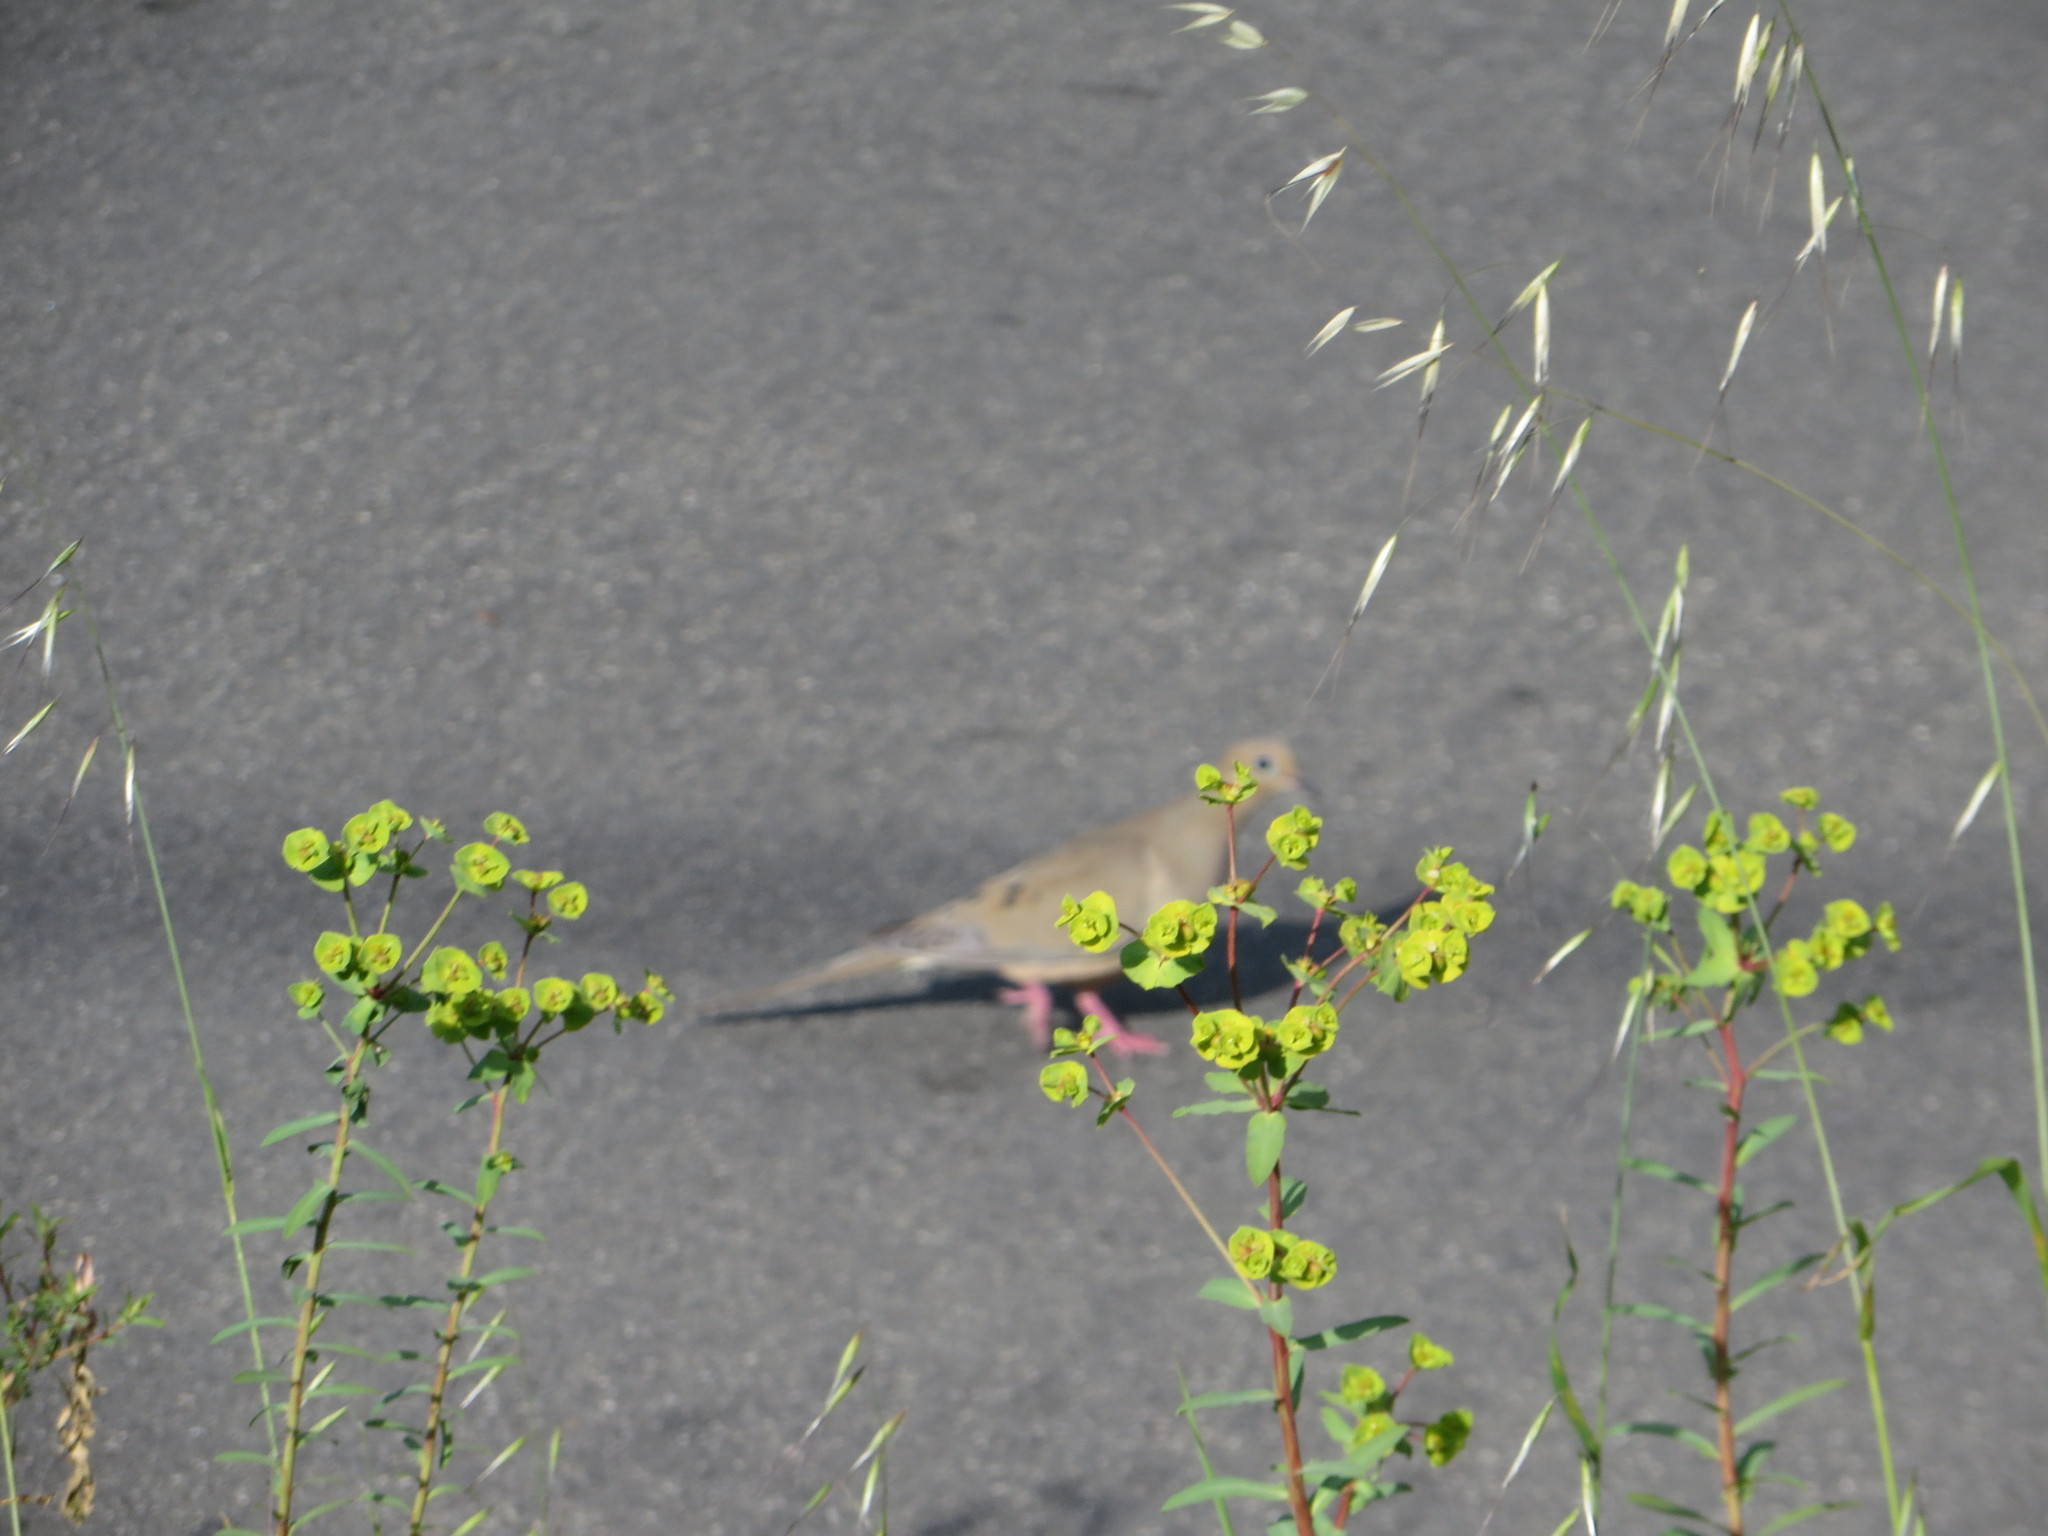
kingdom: Plantae
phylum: Tracheophyta
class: Magnoliopsida
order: Malpighiales
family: Euphorbiaceae
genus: Euphorbia
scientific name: Euphorbia terracina
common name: Geraldton carnation weed
